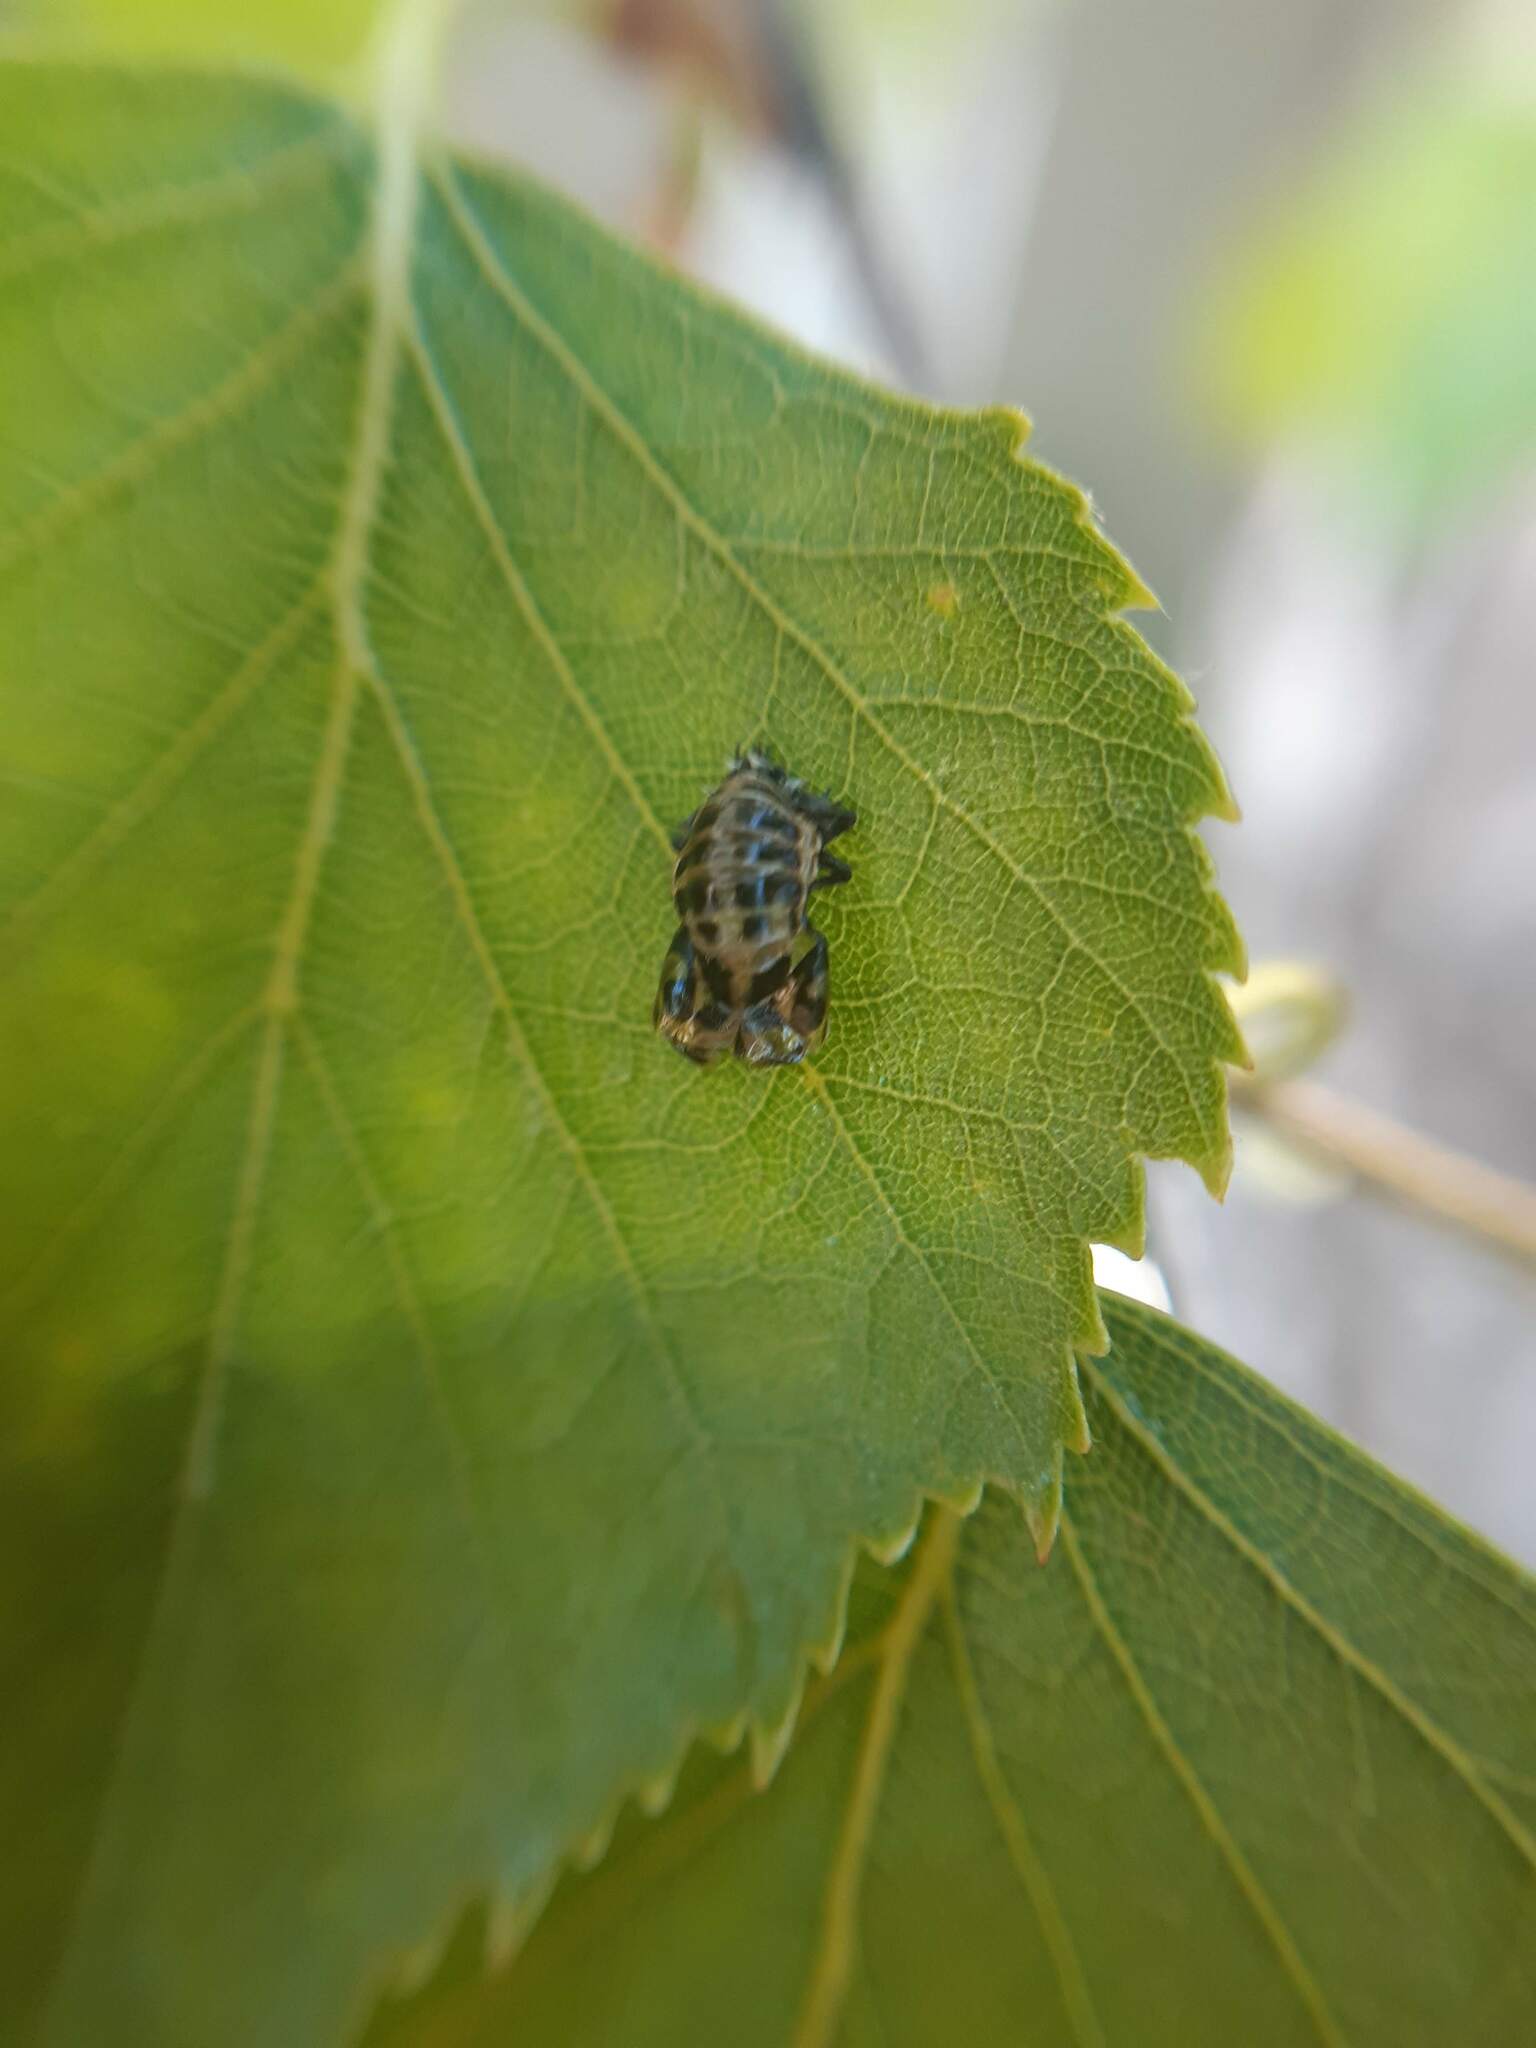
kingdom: Animalia
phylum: Arthropoda
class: Insecta
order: Coleoptera
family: Coccinellidae
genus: Harmonia
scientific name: Harmonia conformis
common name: Common spotted ladybird beetle
